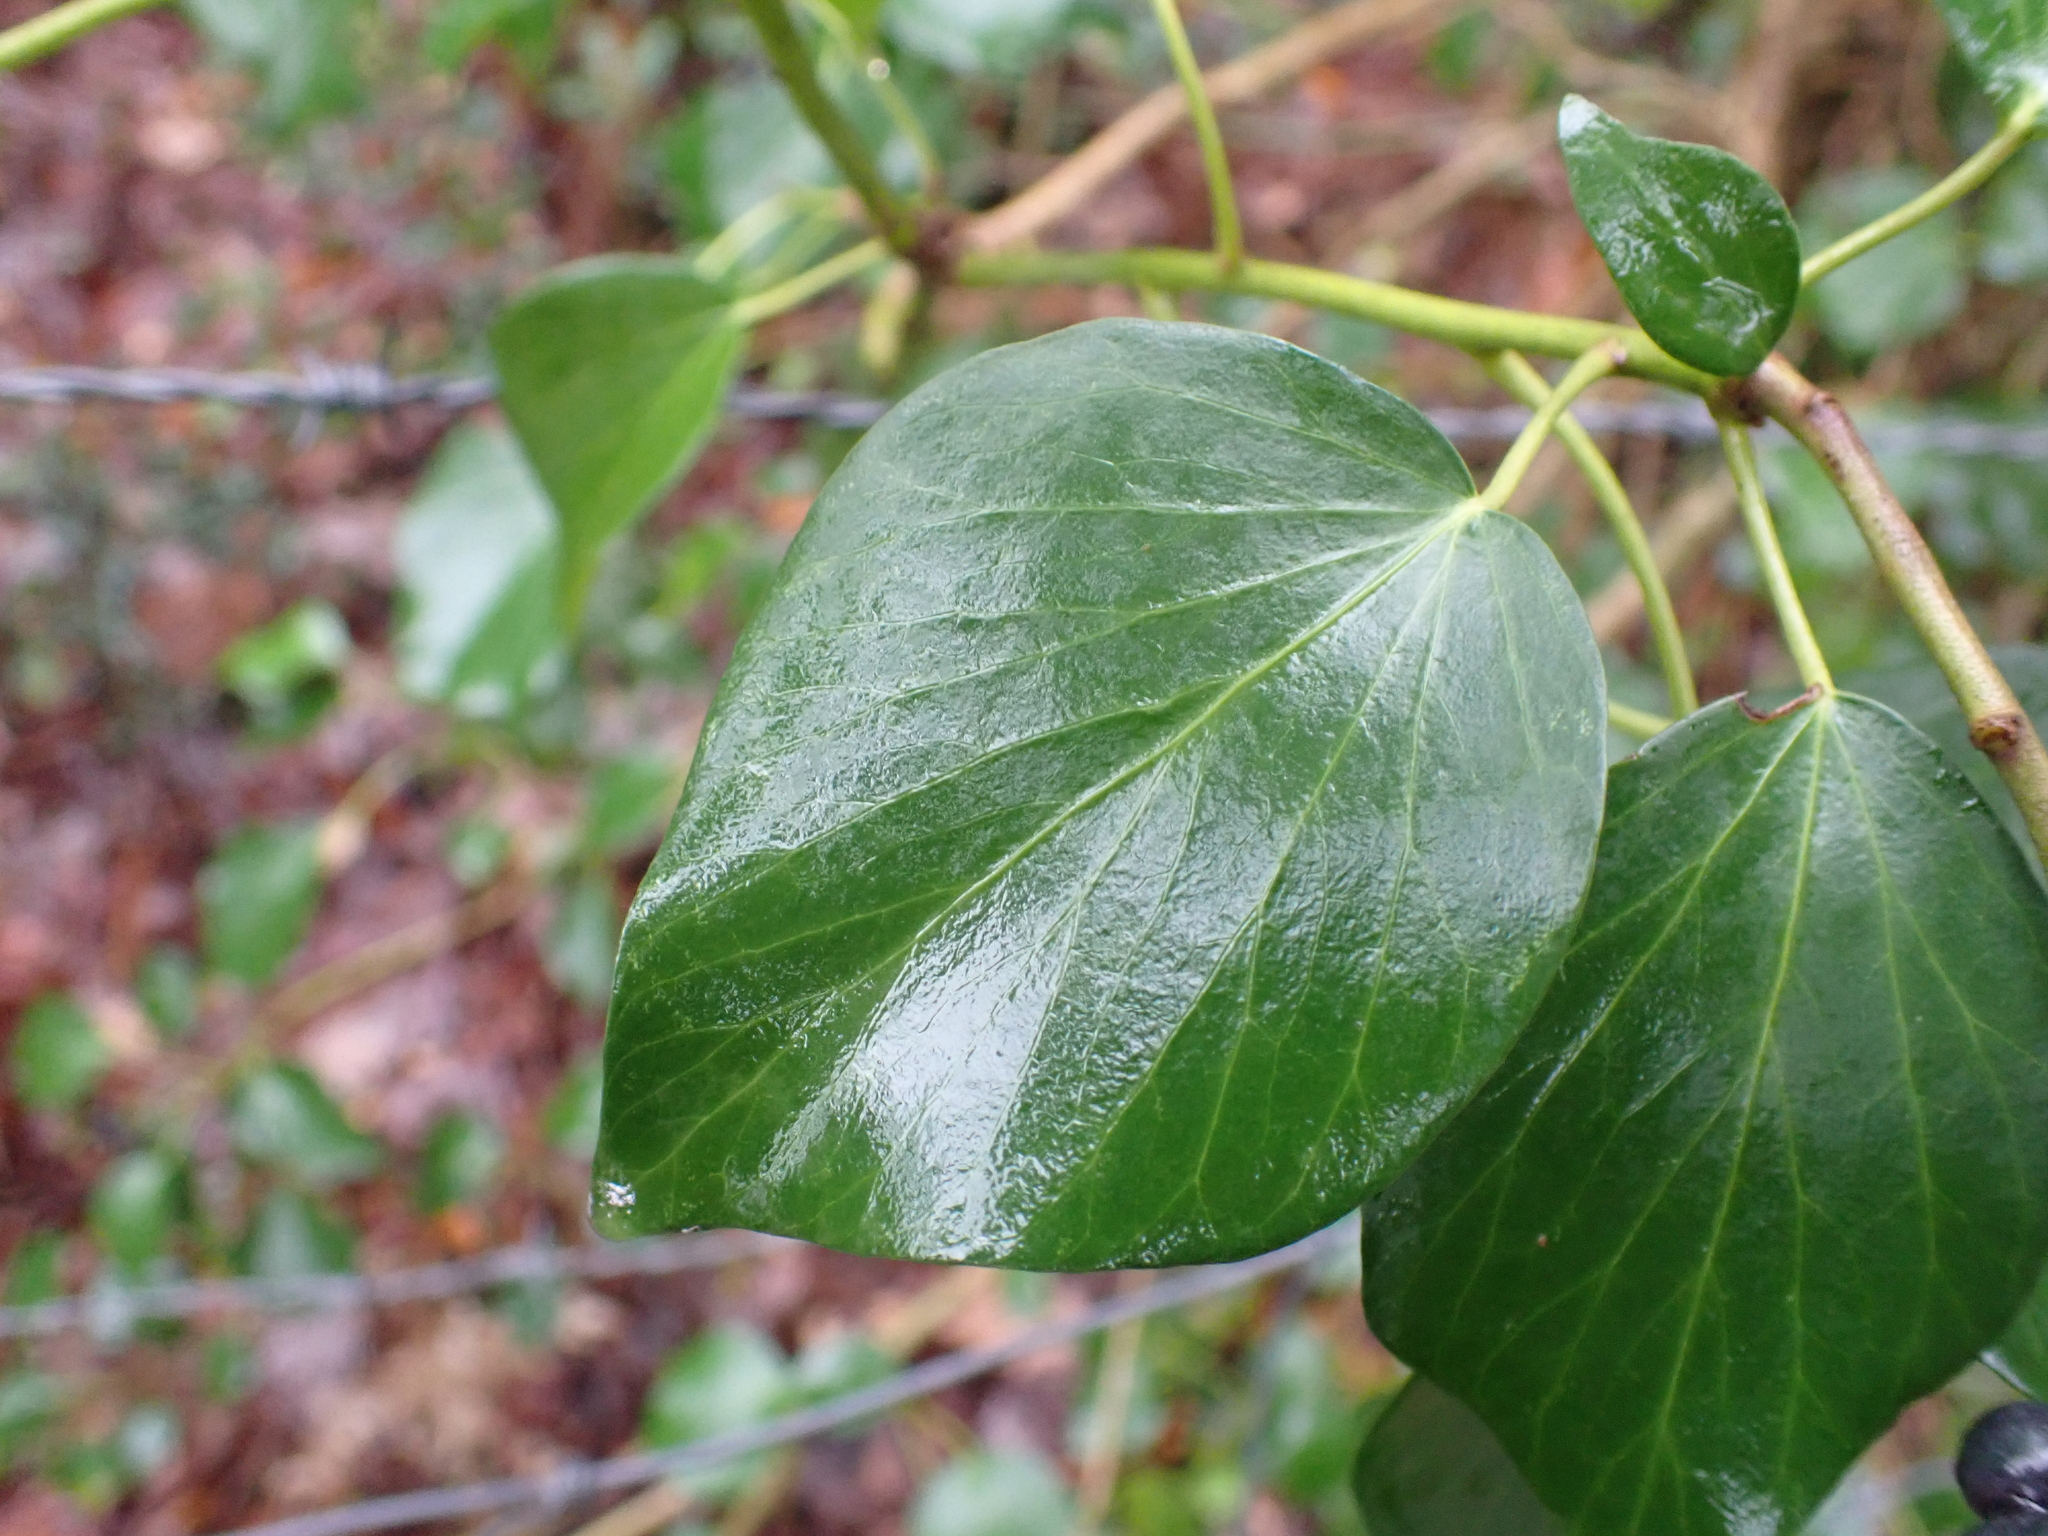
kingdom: Plantae
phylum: Tracheophyta
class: Magnoliopsida
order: Apiales
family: Araliaceae
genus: Hedera
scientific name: Hedera helix
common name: Ivy
